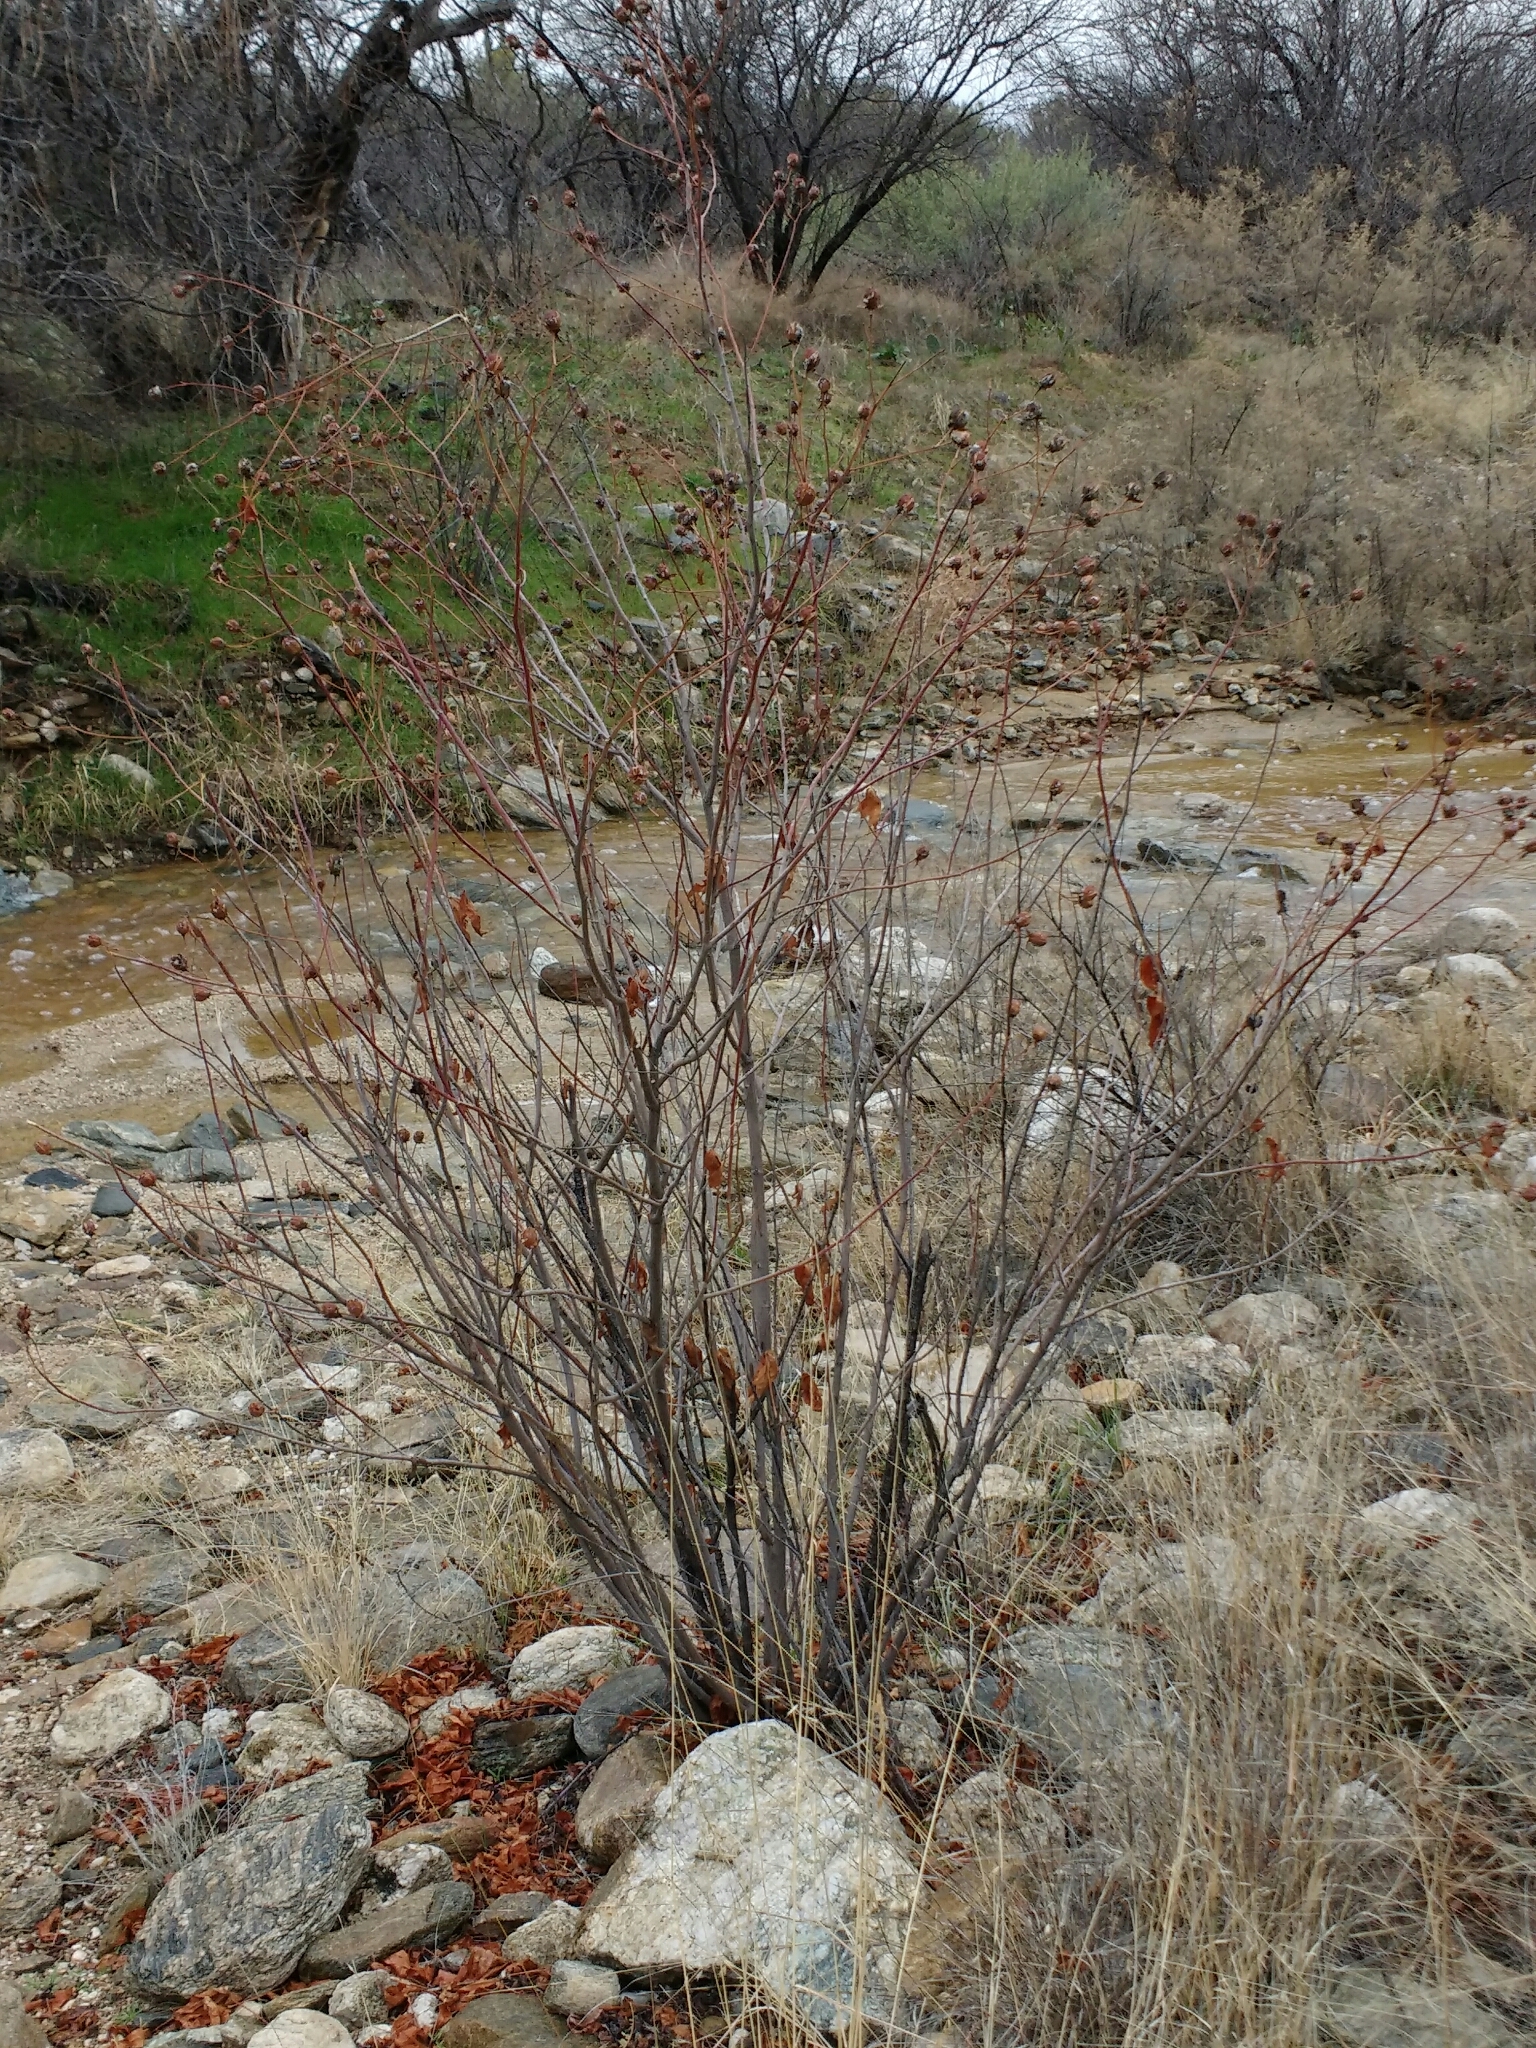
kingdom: Plantae
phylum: Tracheophyta
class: Magnoliopsida
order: Malvales
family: Malvaceae
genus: Gossypium
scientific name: Gossypium thurberi
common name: Desert cotton
